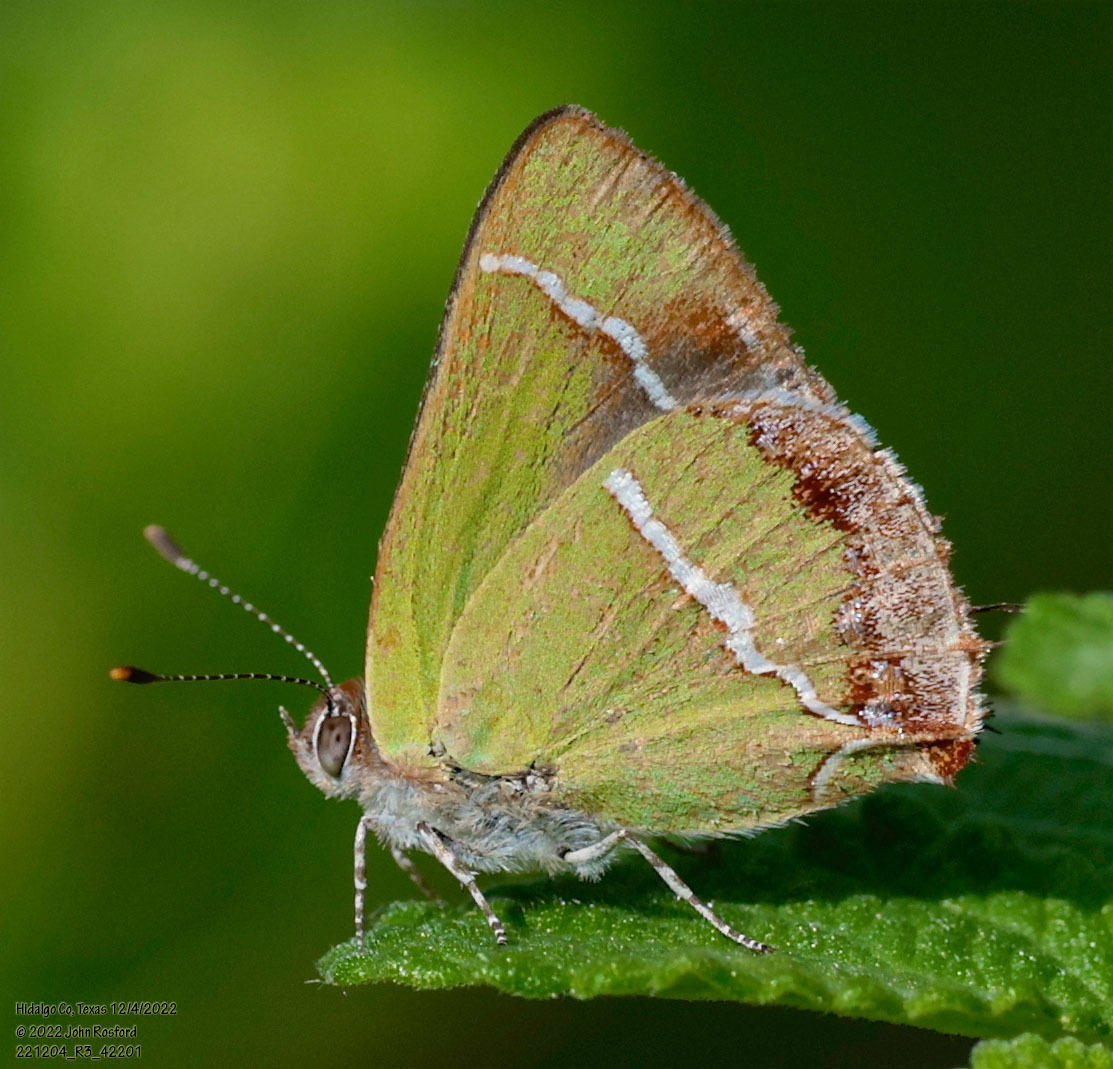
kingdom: Animalia
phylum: Arthropoda
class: Insecta
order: Lepidoptera
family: Lycaenidae
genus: Chlorostrymon
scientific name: Chlorostrymon simaethis
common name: Silver-banded hairstreak
